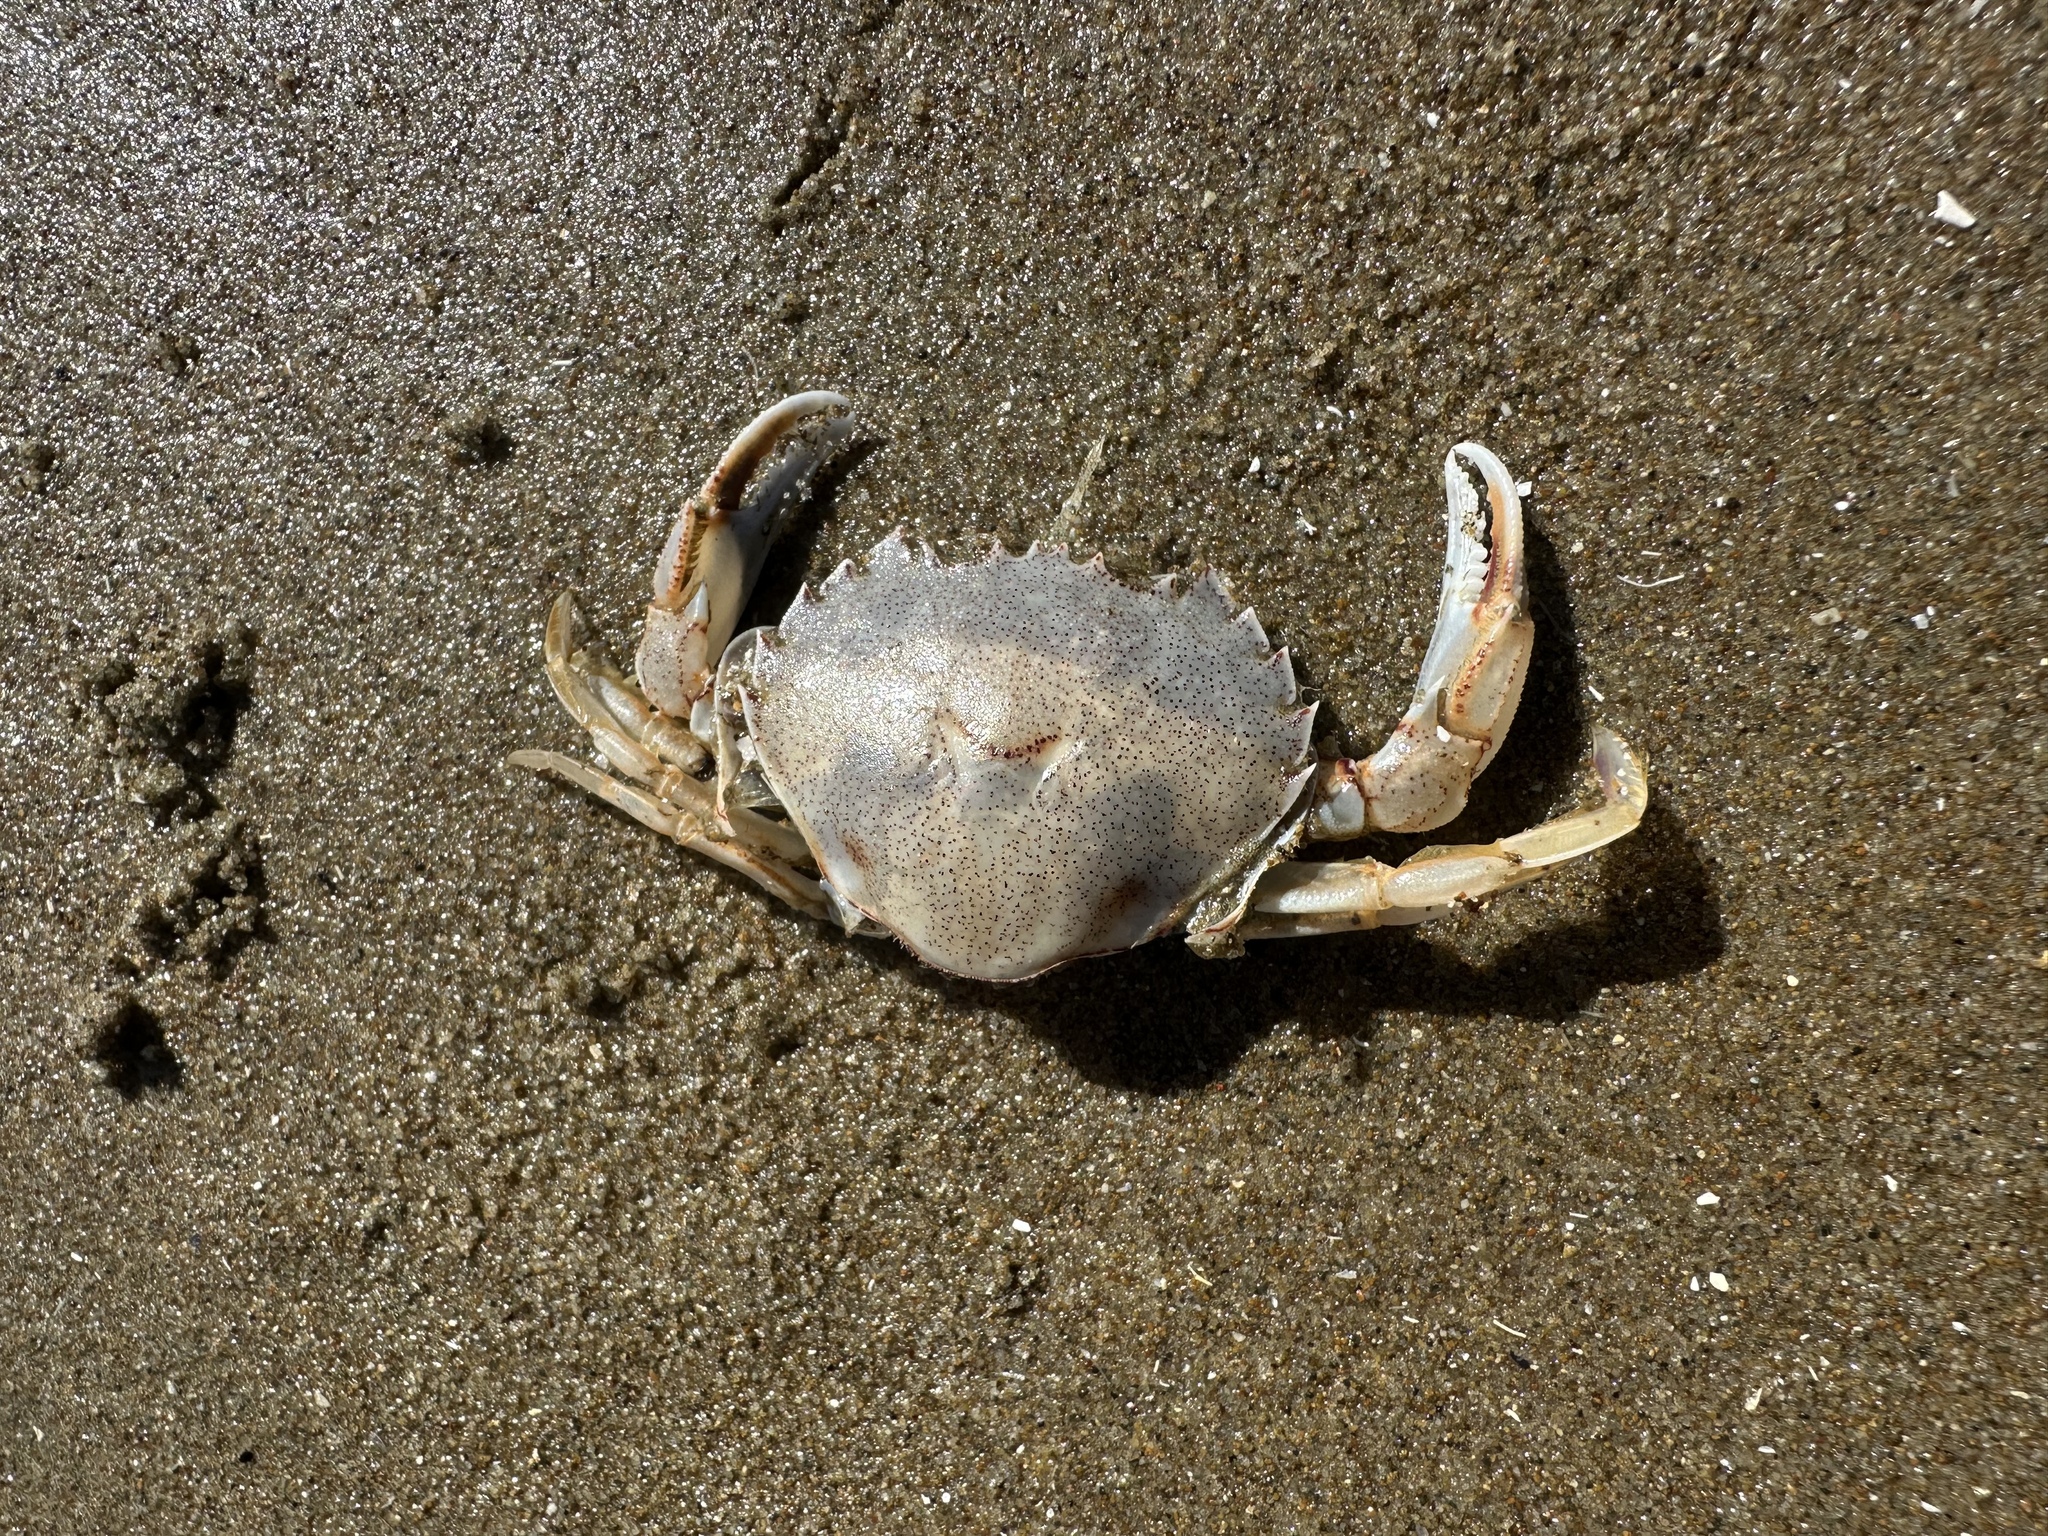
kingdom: Animalia
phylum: Arthropoda
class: Malacostraca
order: Decapoda
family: Ovalipidae
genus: Ovalipes
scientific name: Ovalipes catharus
